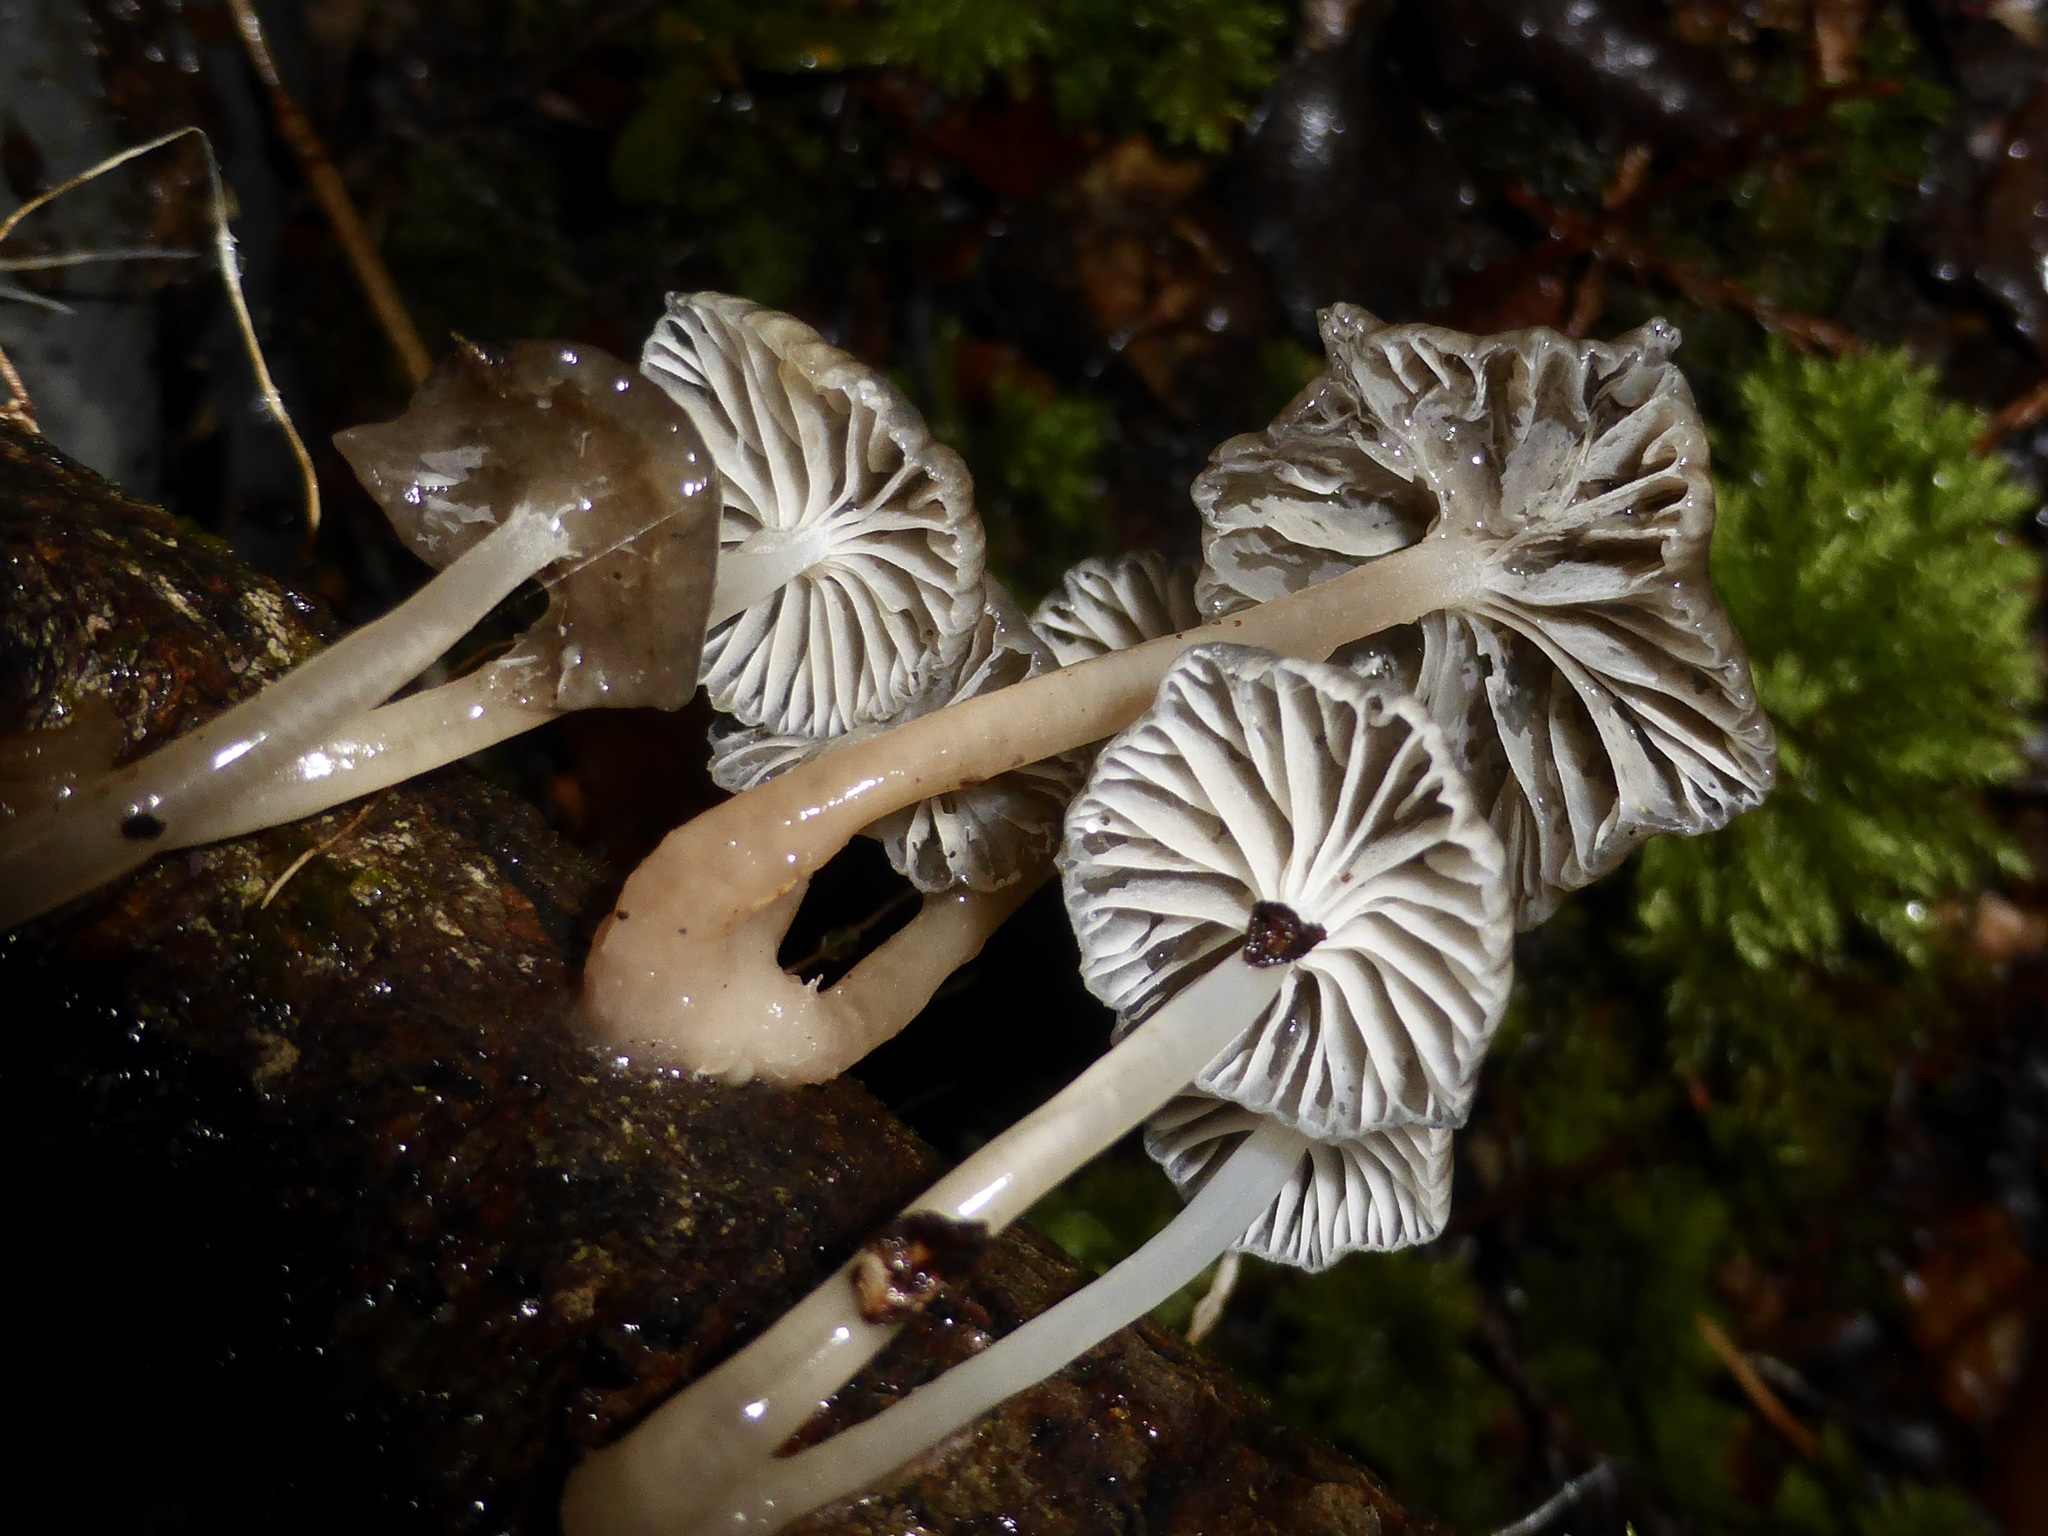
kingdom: Fungi
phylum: Basidiomycota
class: Agaricomycetes
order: Agaricales
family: Mycenaceae
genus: Roridomyces
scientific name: Roridomyces austrororidus
